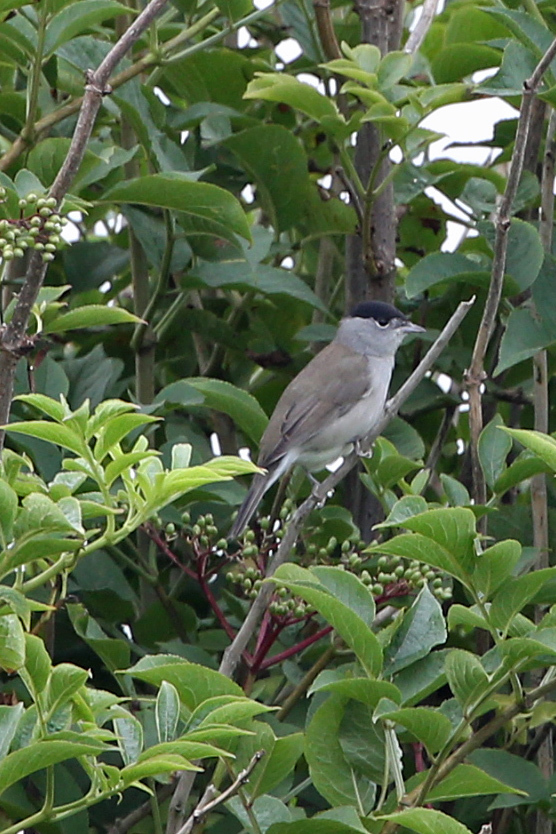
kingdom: Animalia
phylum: Chordata
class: Aves
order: Passeriformes
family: Sylviidae
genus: Sylvia
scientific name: Sylvia atricapilla
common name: Eurasian blackcap
